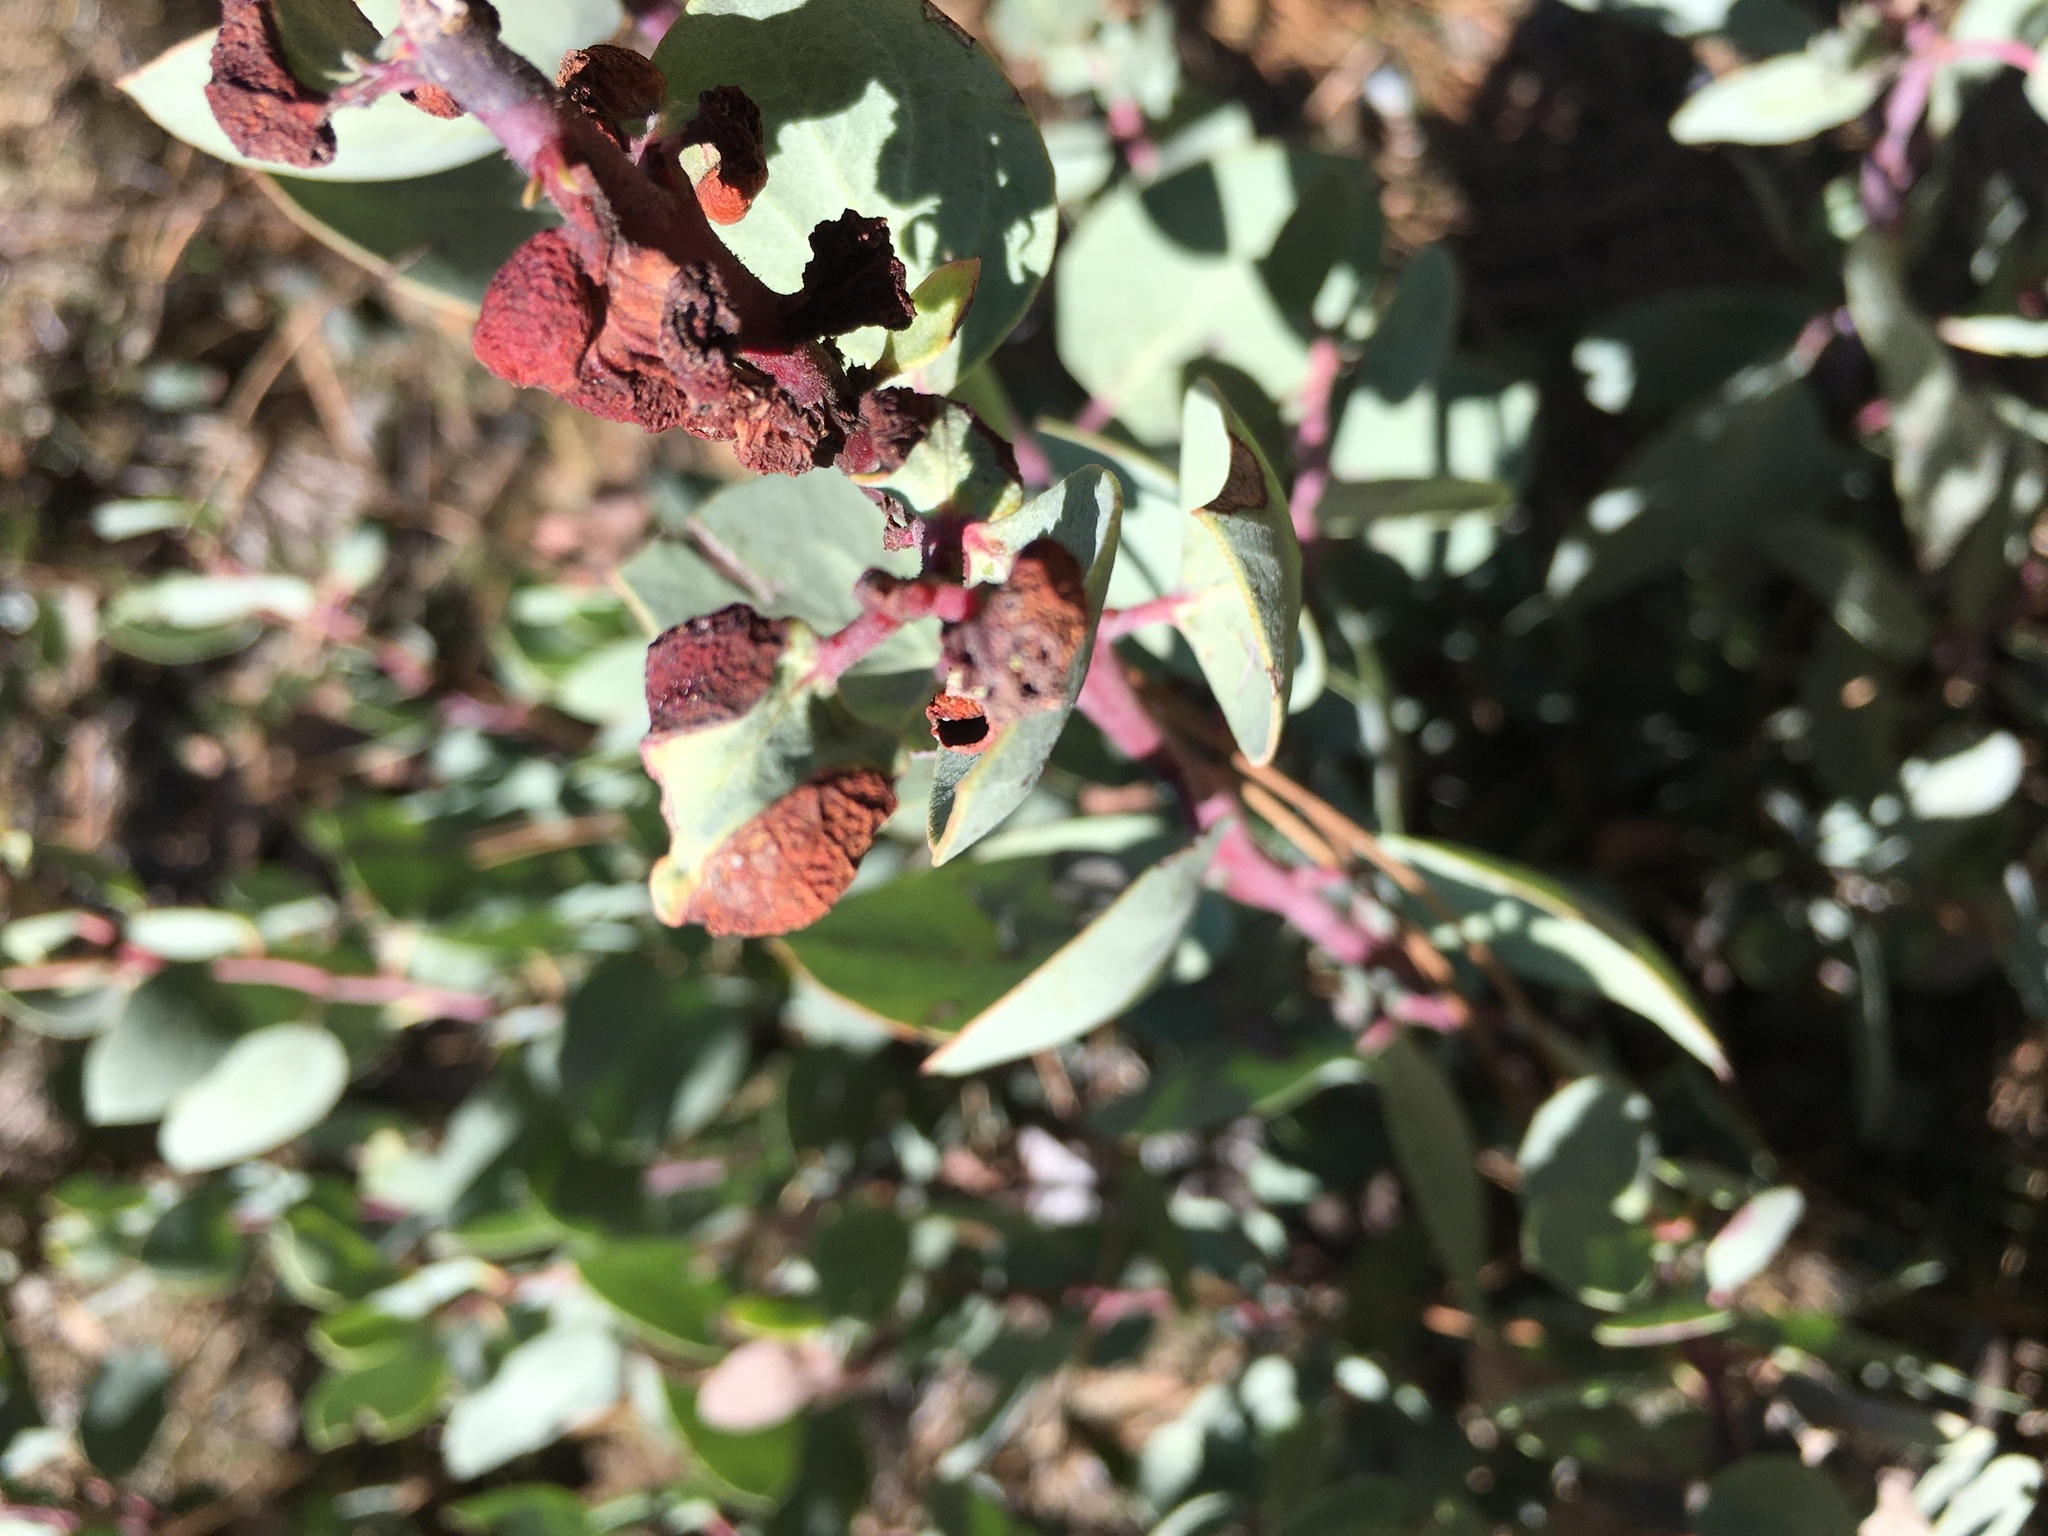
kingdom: Animalia
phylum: Arthropoda
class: Insecta
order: Hemiptera
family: Aphididae
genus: Tamalia
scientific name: Tamalia coweni
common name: Manzanita leafgall aphid
